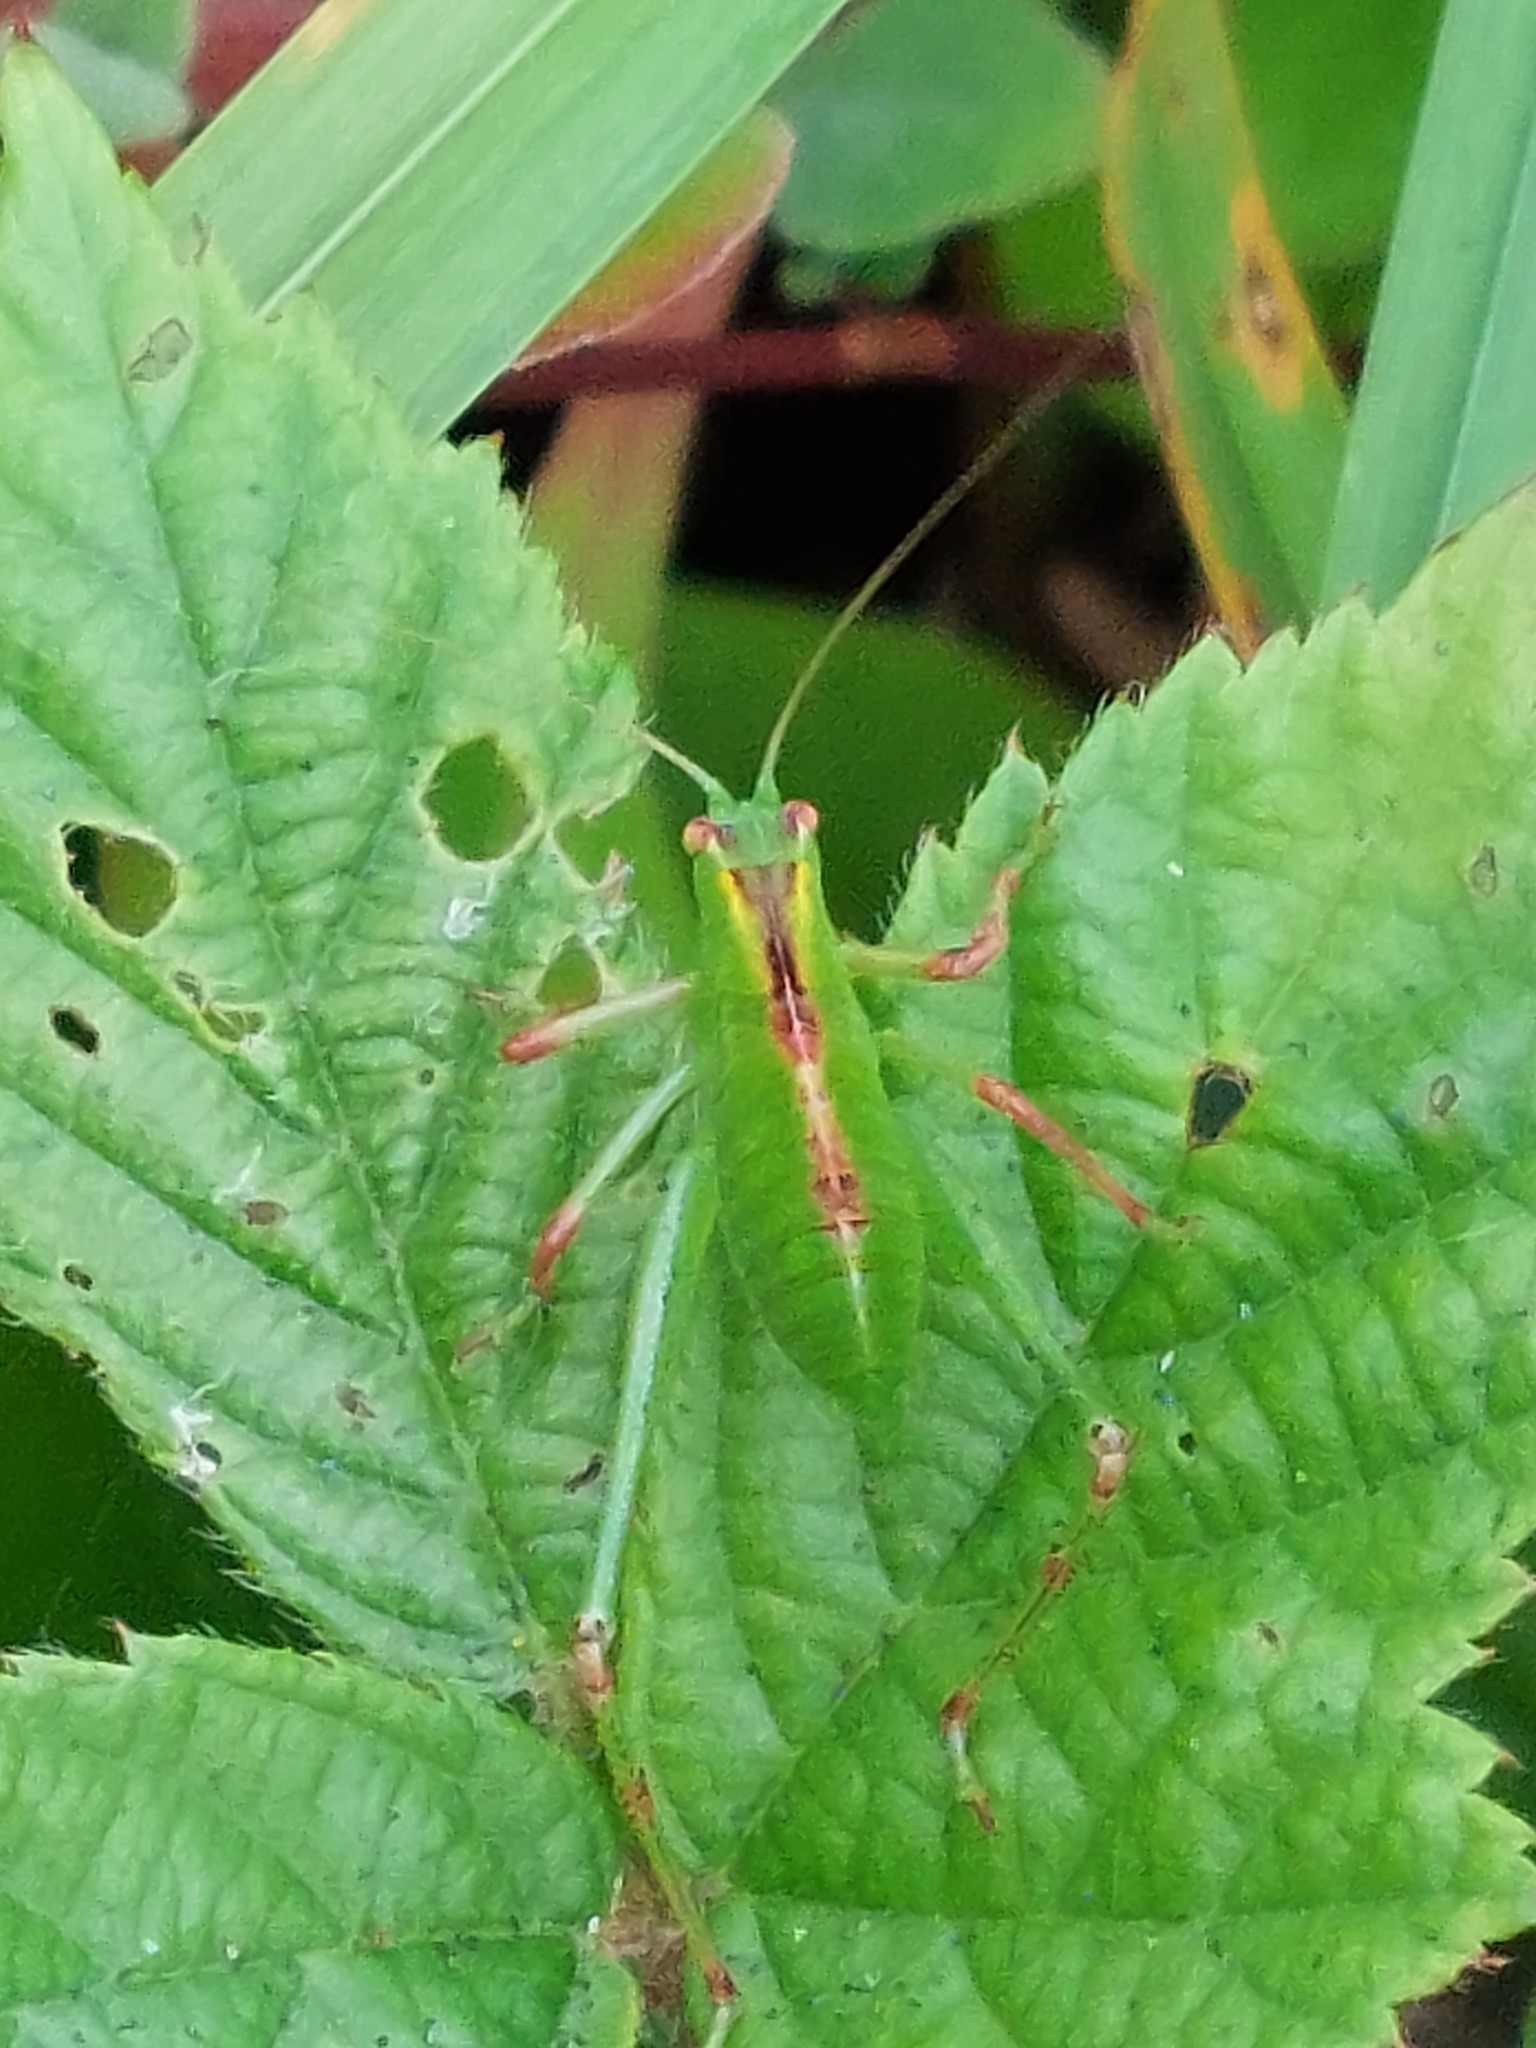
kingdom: Animalia
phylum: Arthropoda
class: Insecta
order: Orthoptera
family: Tettigoniidae
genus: Caedicia
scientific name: Caedicia simplex
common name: Common garden katydid
